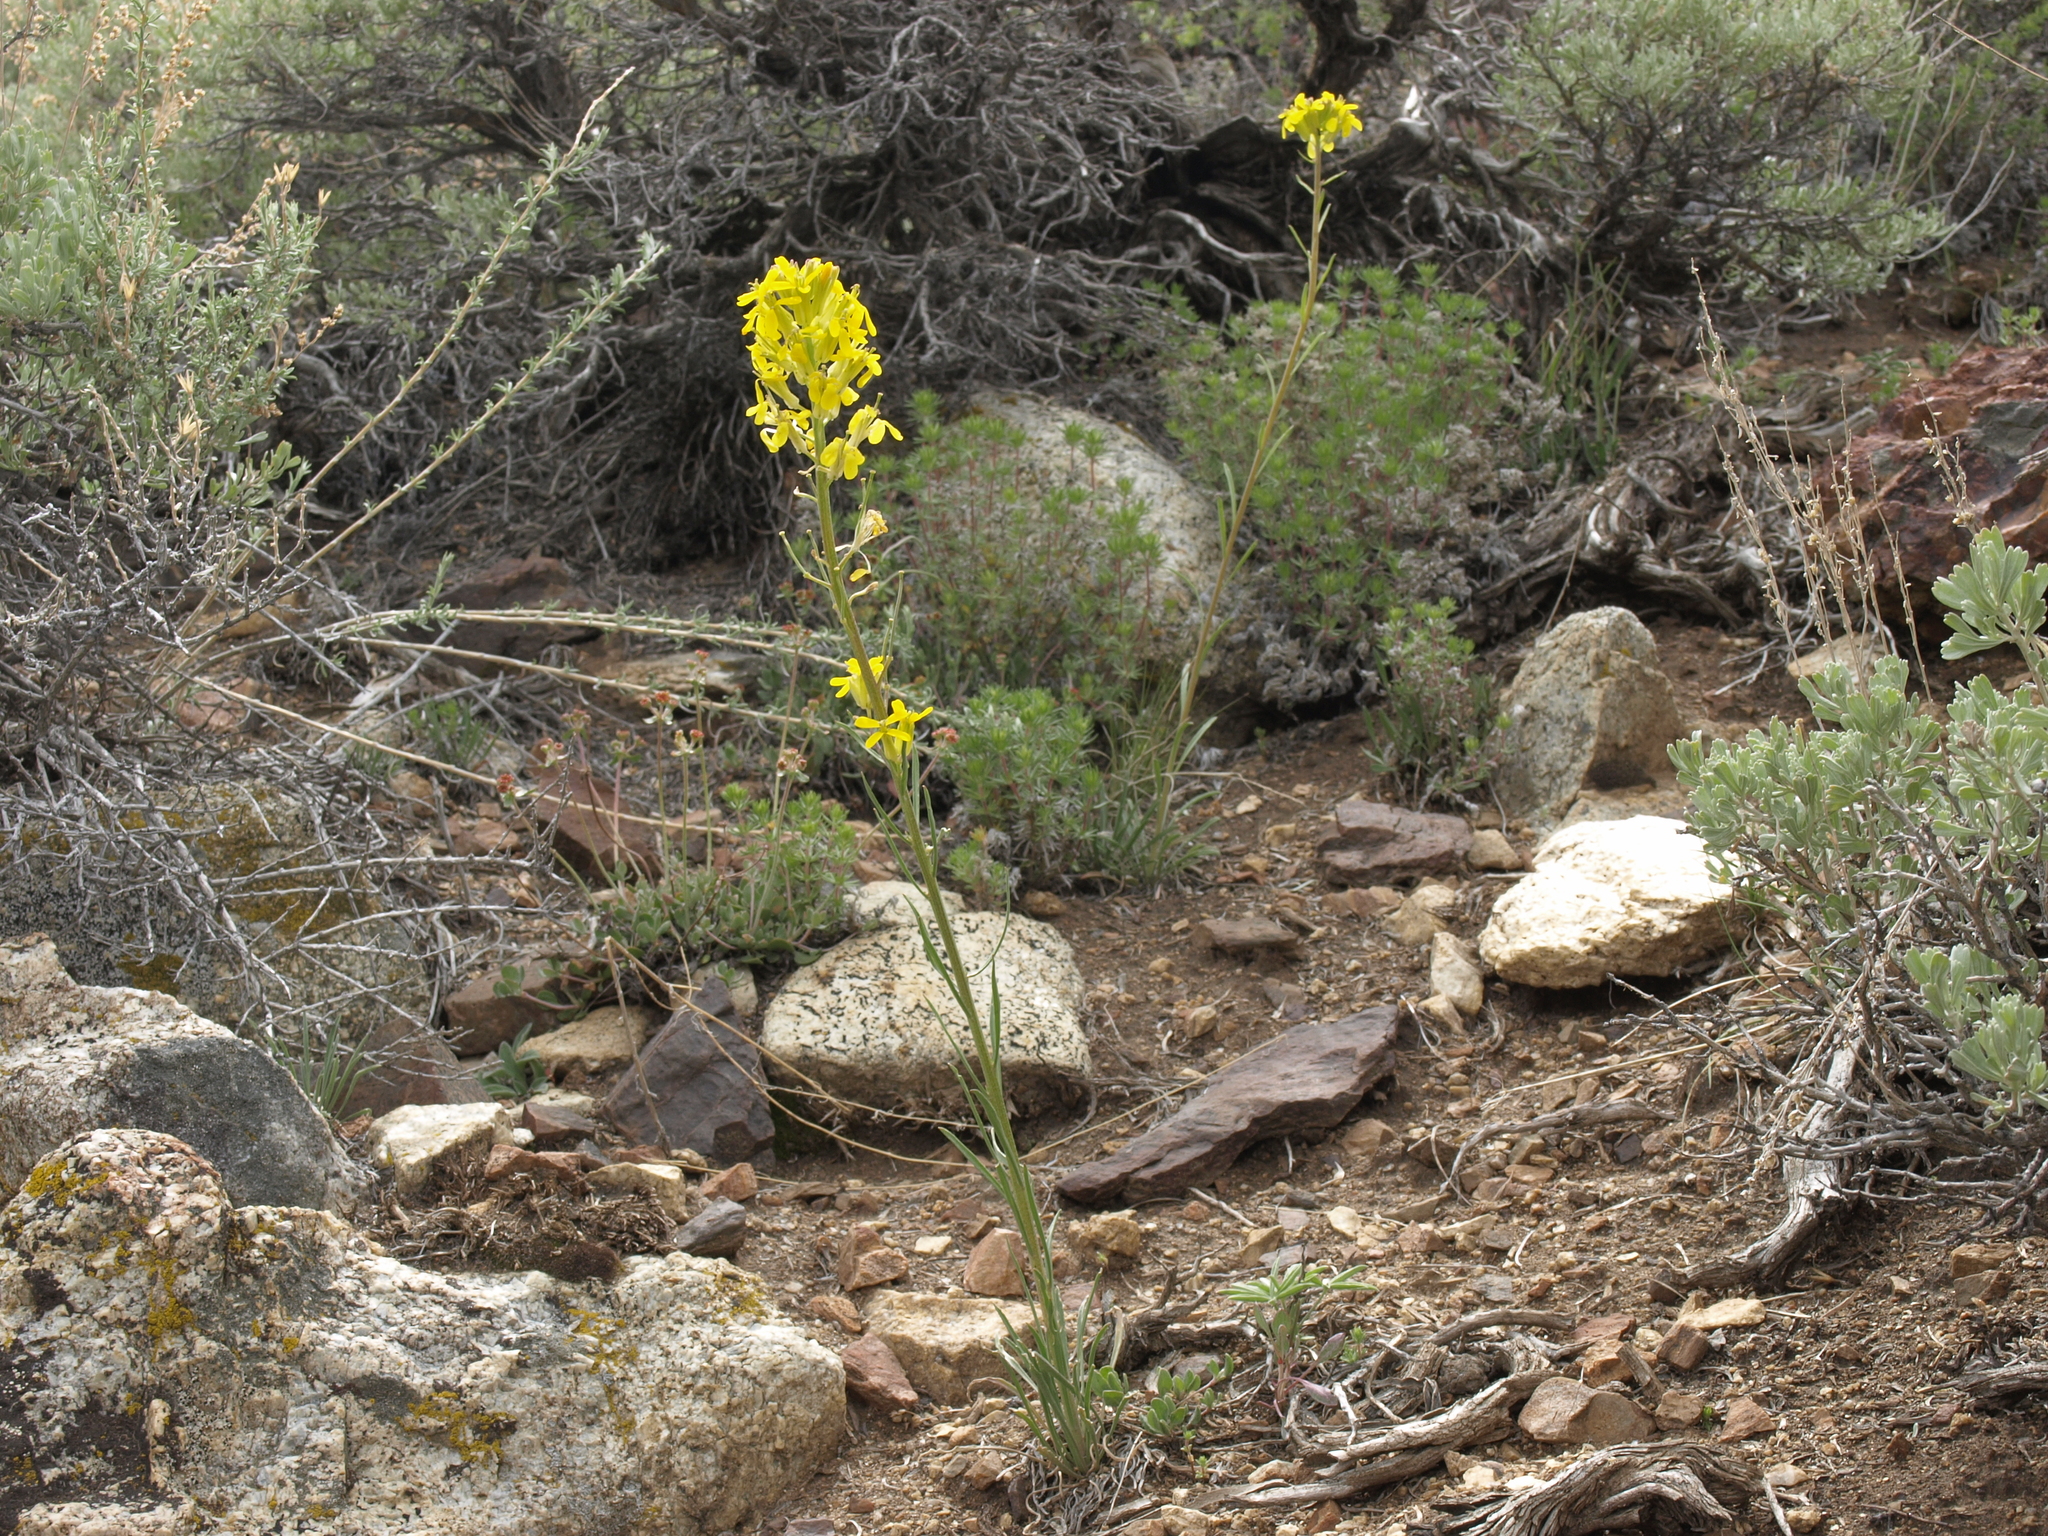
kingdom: Plantae
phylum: Tracheophyta
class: Magnoliopsida
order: Brassicales
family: Brassicaceae
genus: Erysimum
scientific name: Erysimum capitatum
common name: Western wallflower
